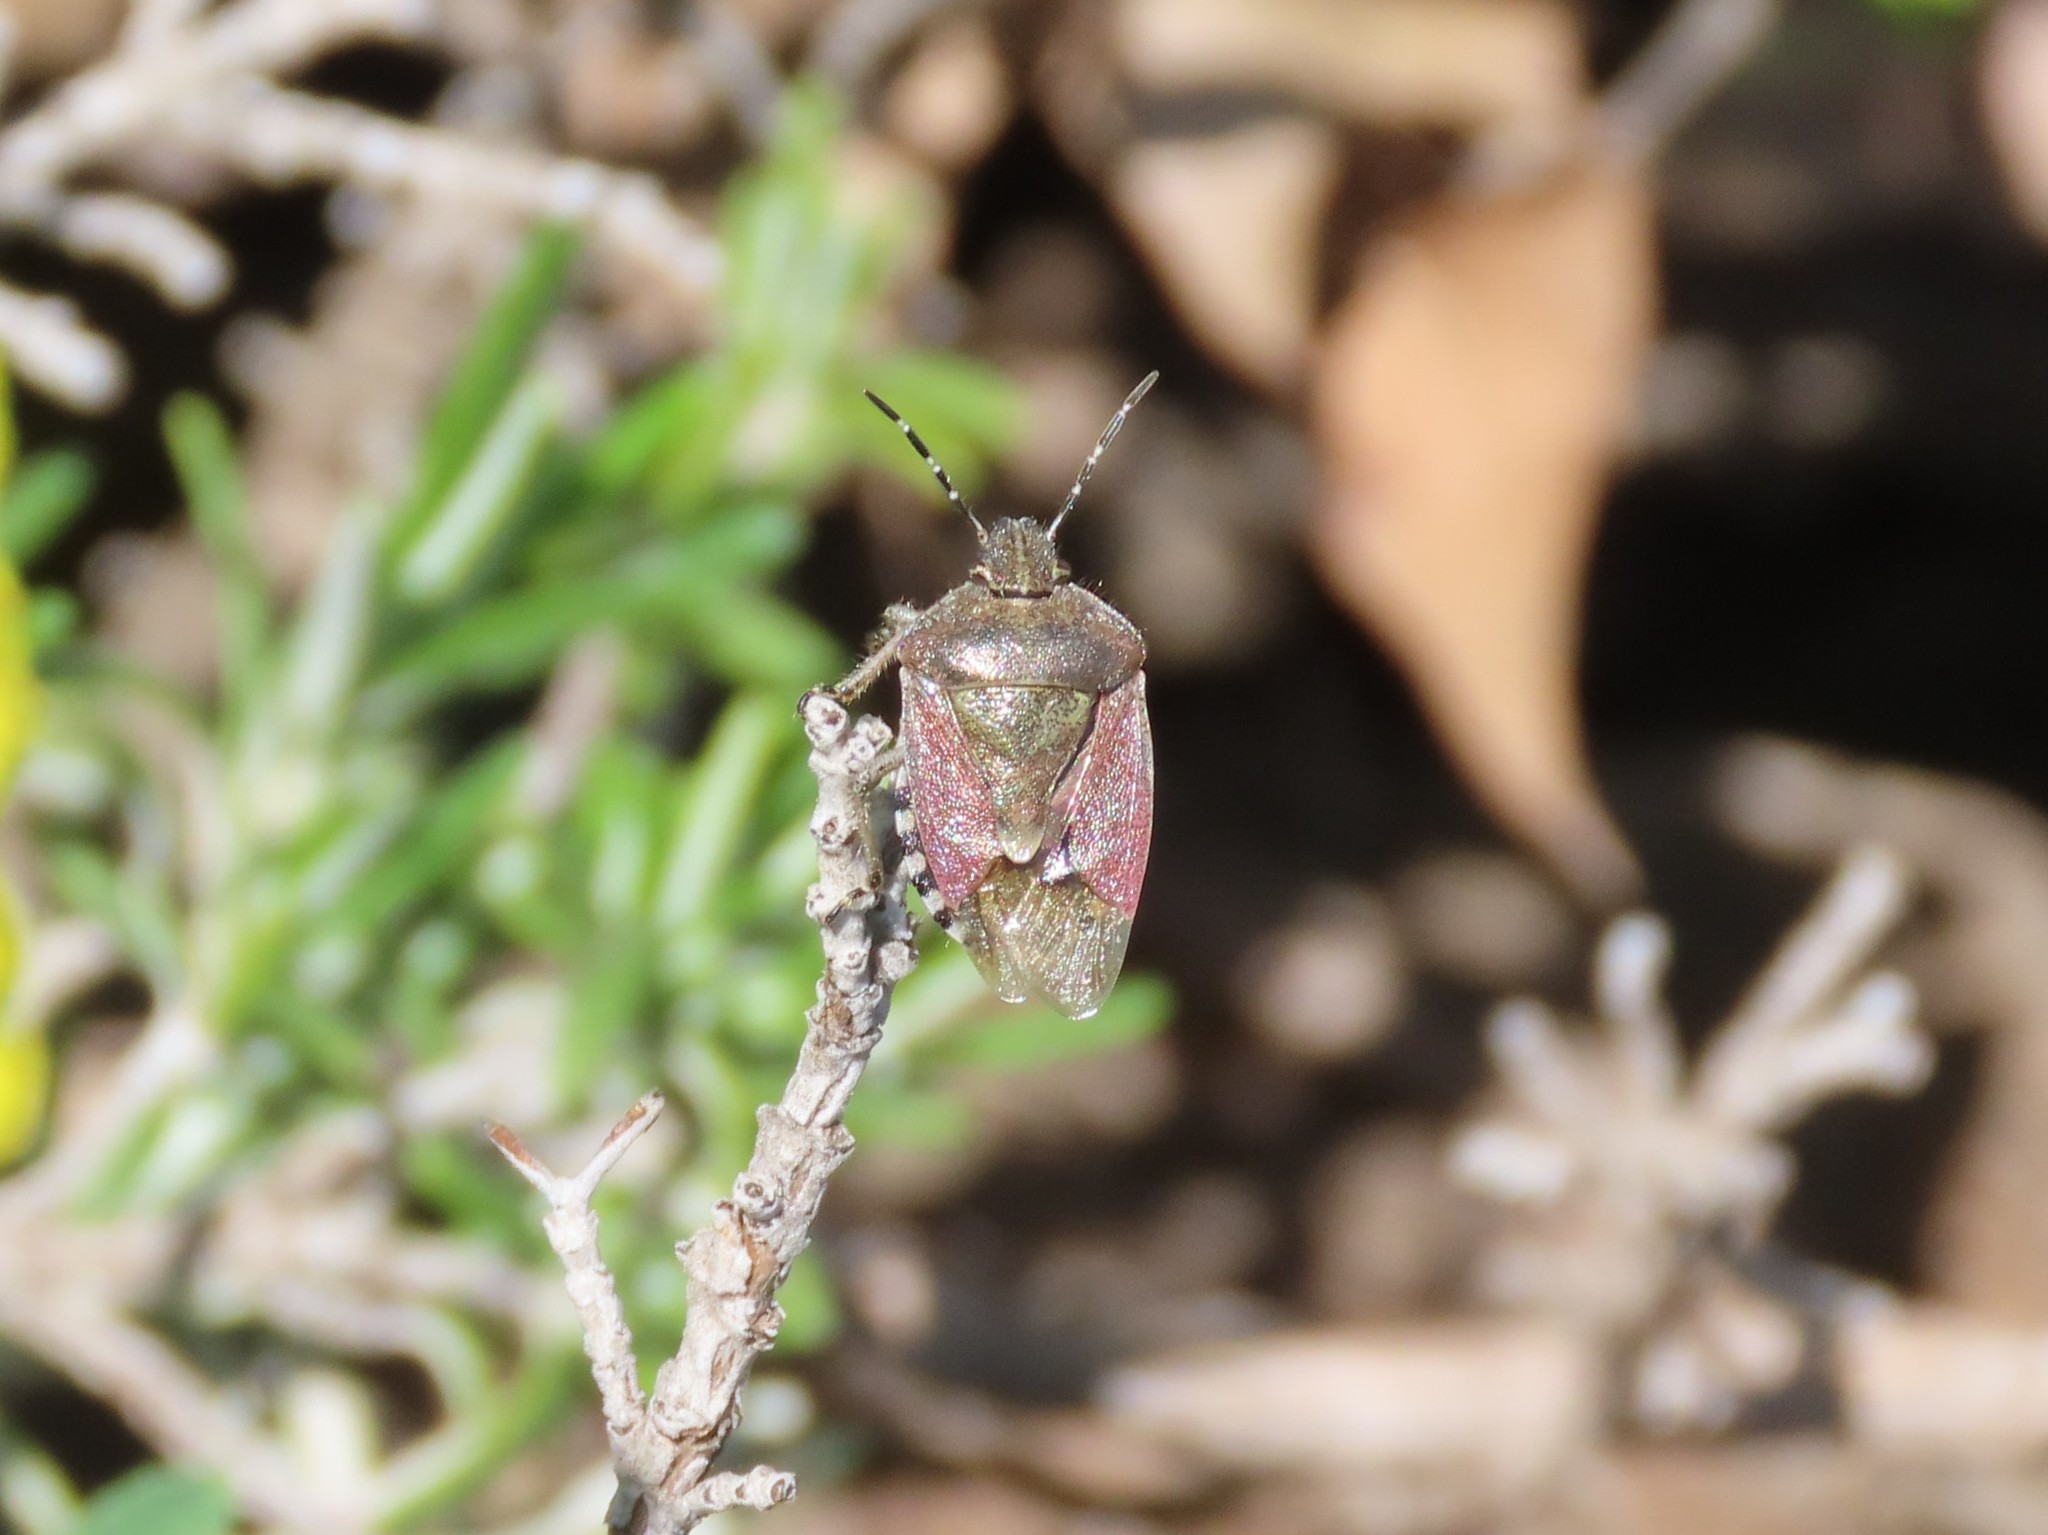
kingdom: Animalia
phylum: Arthropoda
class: Insecta
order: Hemiptera
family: Pentatomidae
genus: Dolycoris
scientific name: Dolycoris baccarum
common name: Sloe bug
